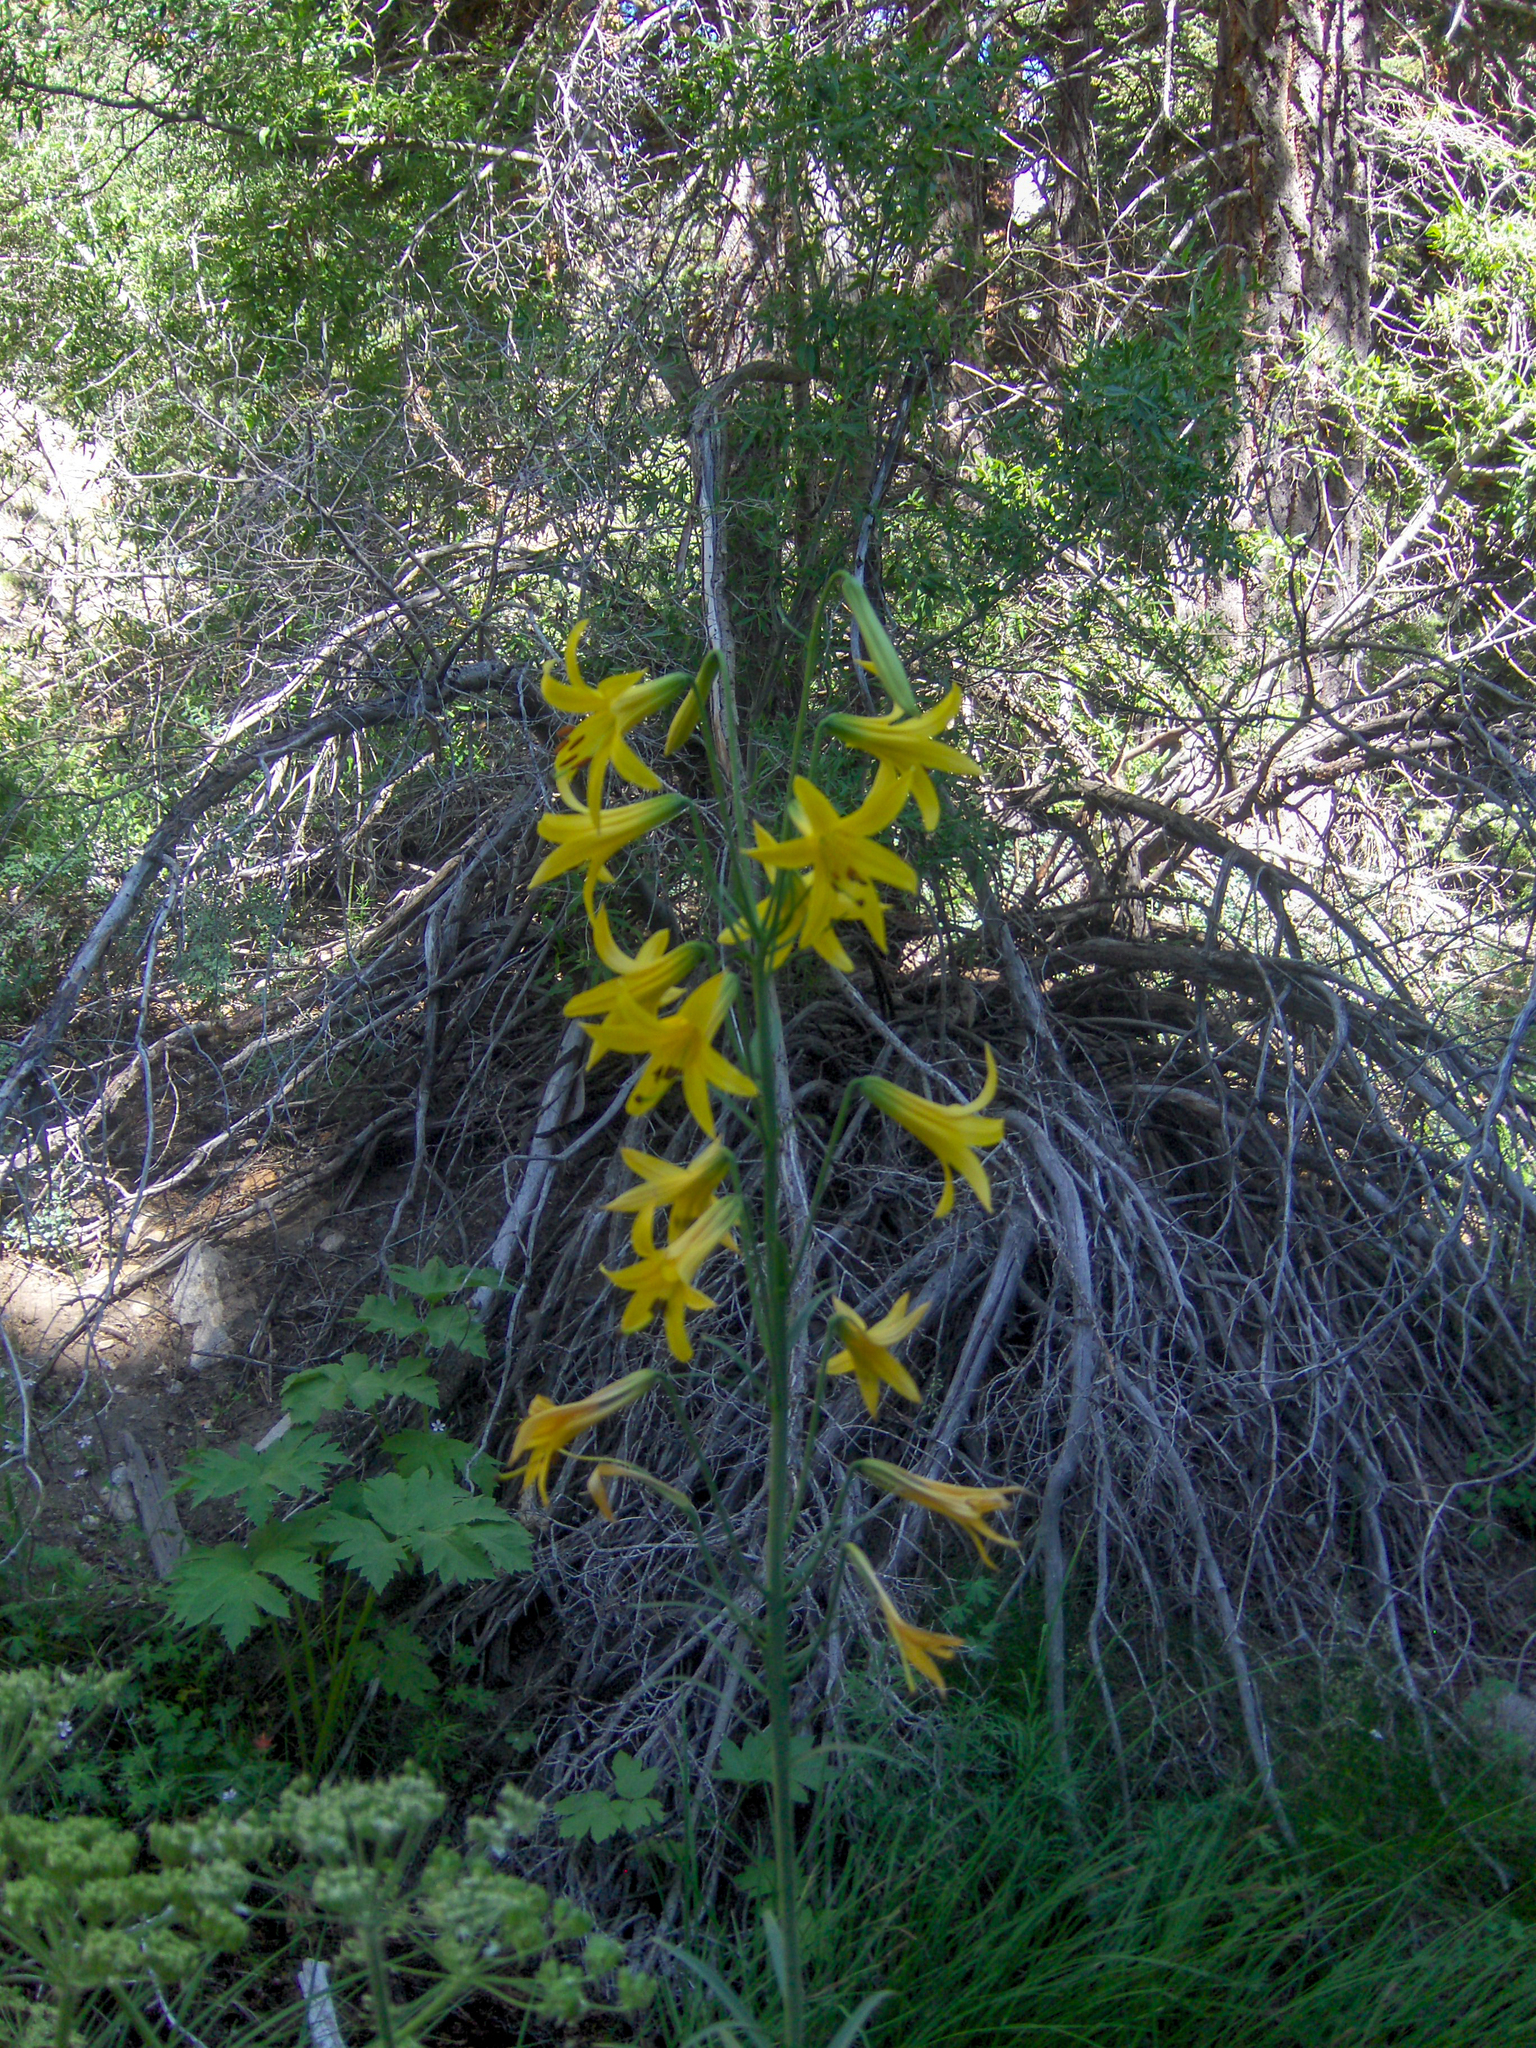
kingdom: Plantae
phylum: Tracheophyta
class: Liliopsida
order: Liliales
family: Liliaceae
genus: Lilium
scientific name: Lilium parryi
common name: Lemon lily
